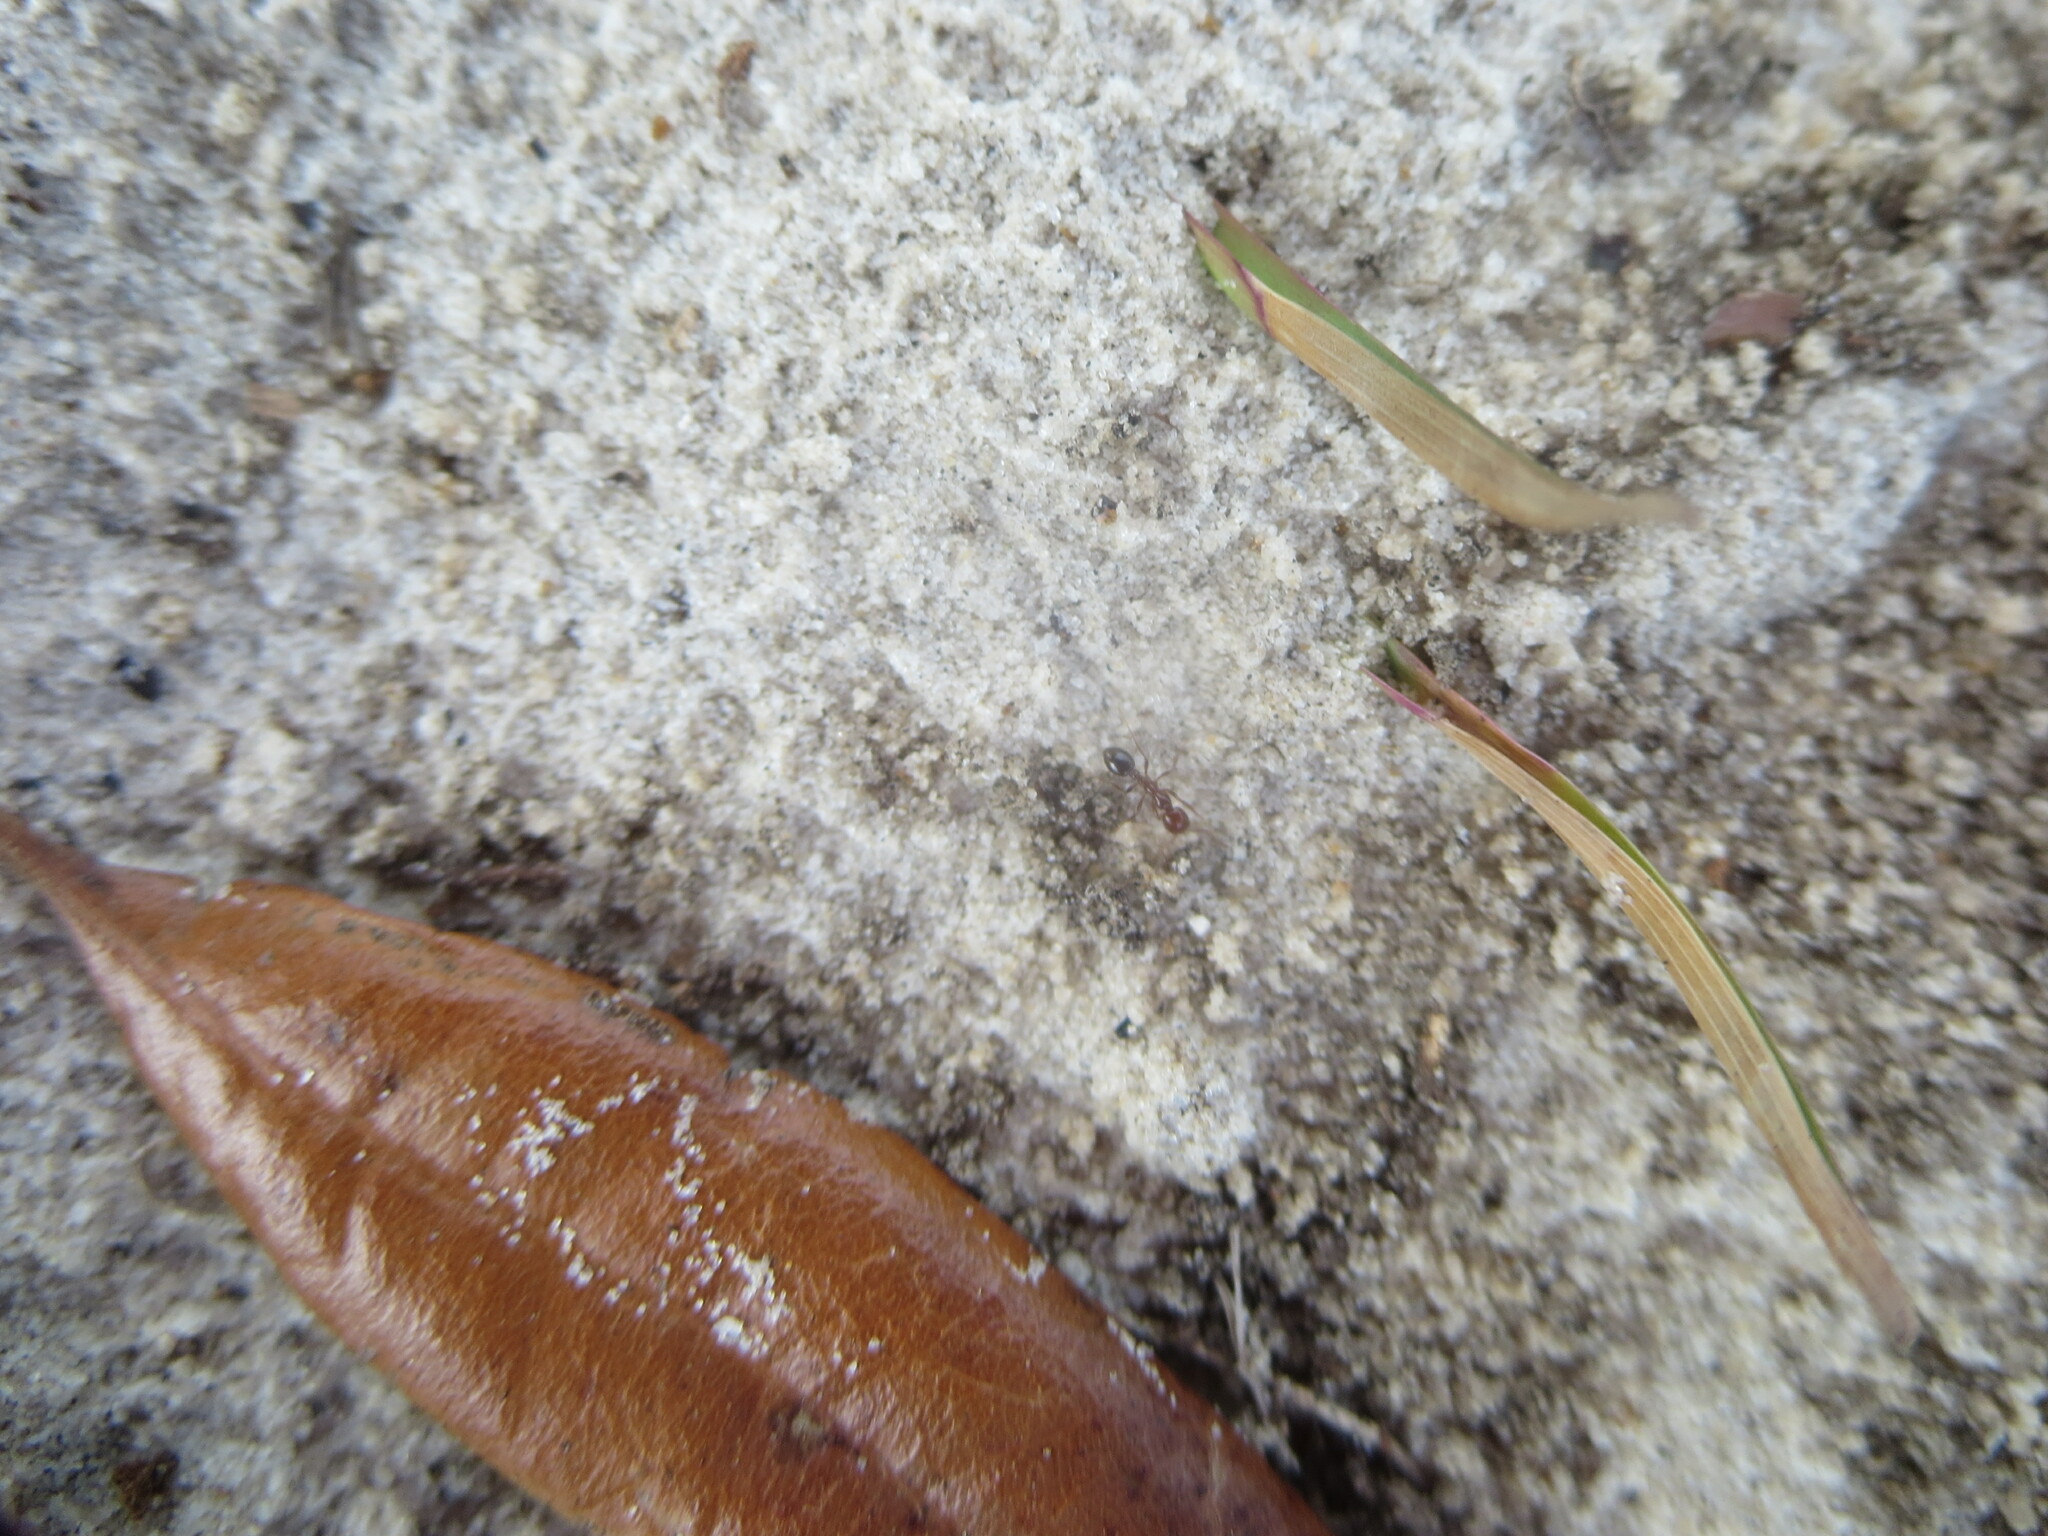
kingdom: Animalia
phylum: Arthropoda
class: Insecta
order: Hymenoptera
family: Formicidae
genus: Solenopsis
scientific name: Solenopsis invicta
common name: Red imported fire ant
